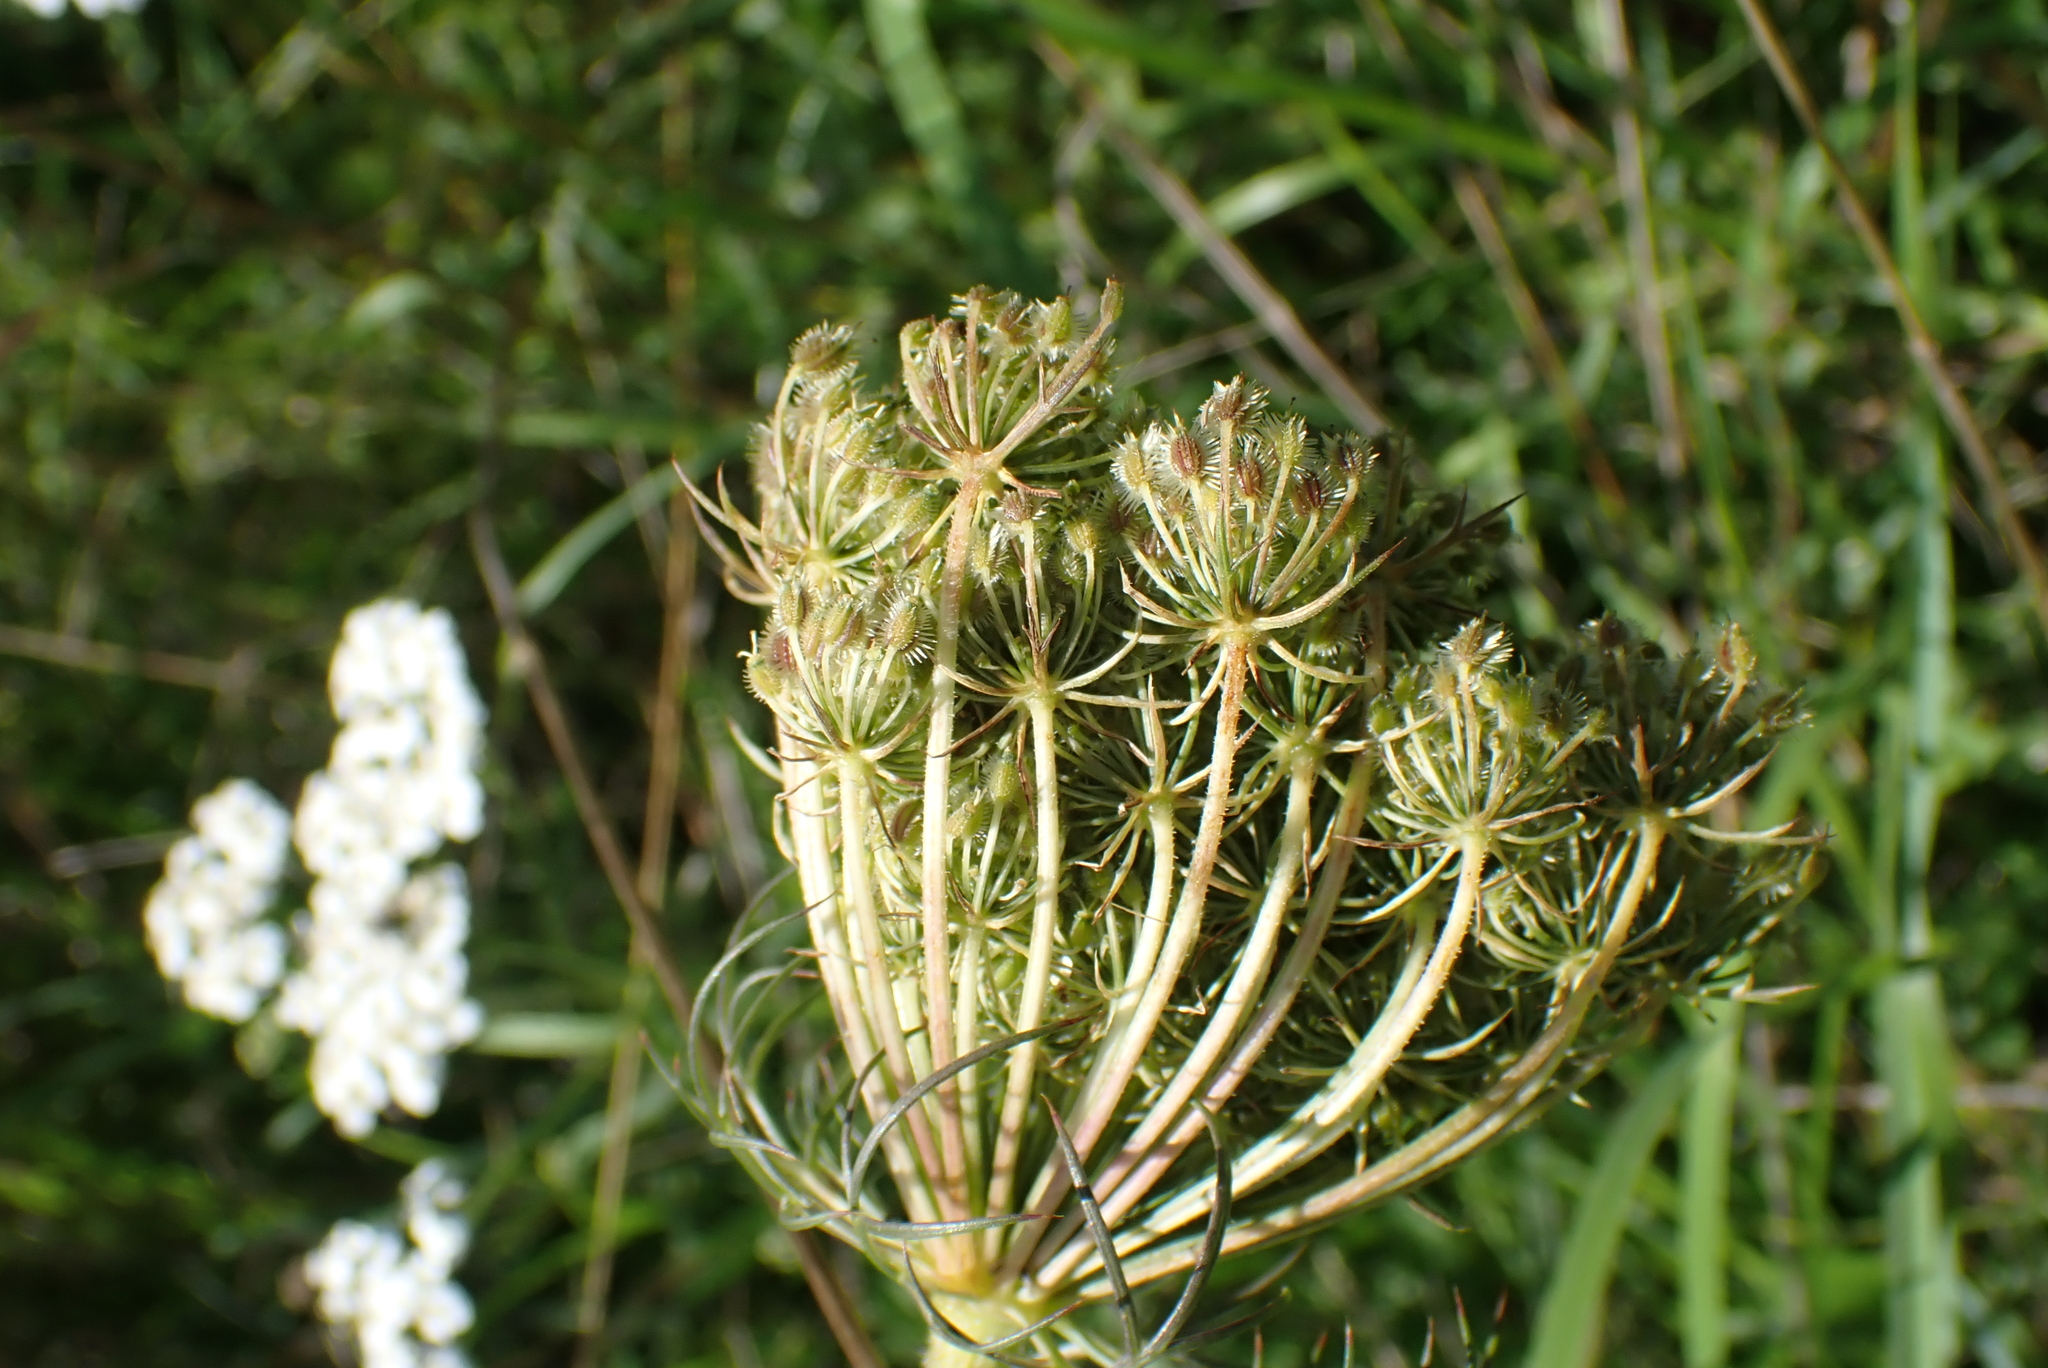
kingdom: Plantae
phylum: Tracheophyta
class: Magnoliopsida
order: Apiales
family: Apiaceae
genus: Daucus
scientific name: Daucus carota
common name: Wild carrot
